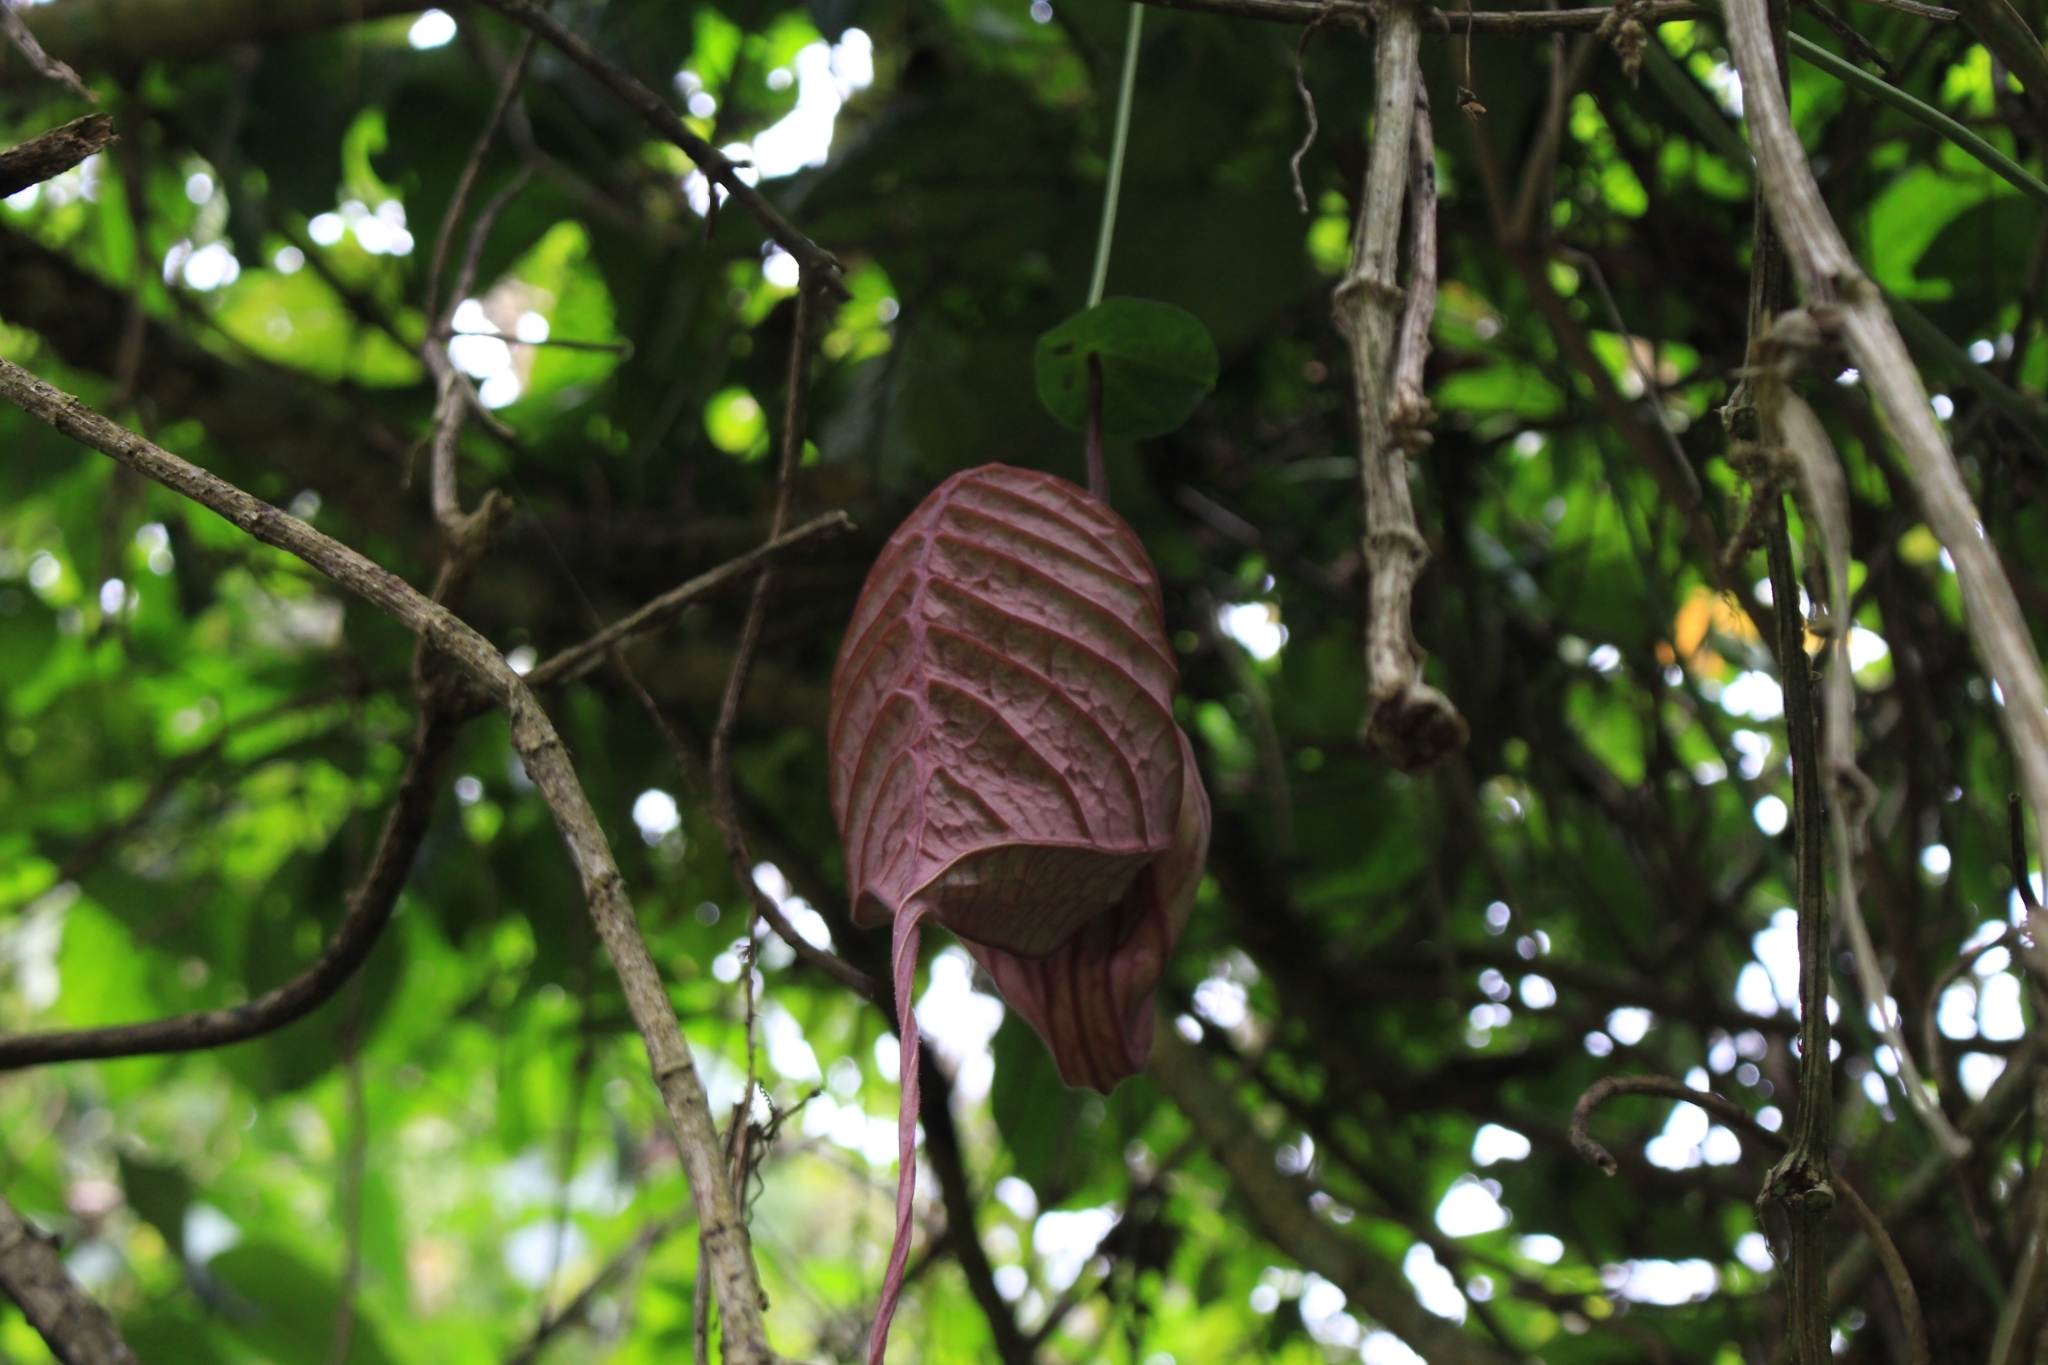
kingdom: Plantae
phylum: Tracheophyta
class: Magnoliopsida
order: Piperales
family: Aristolochiaceae
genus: Aristolochia
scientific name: Aristolochia grandiflora
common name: Pelicanflower
